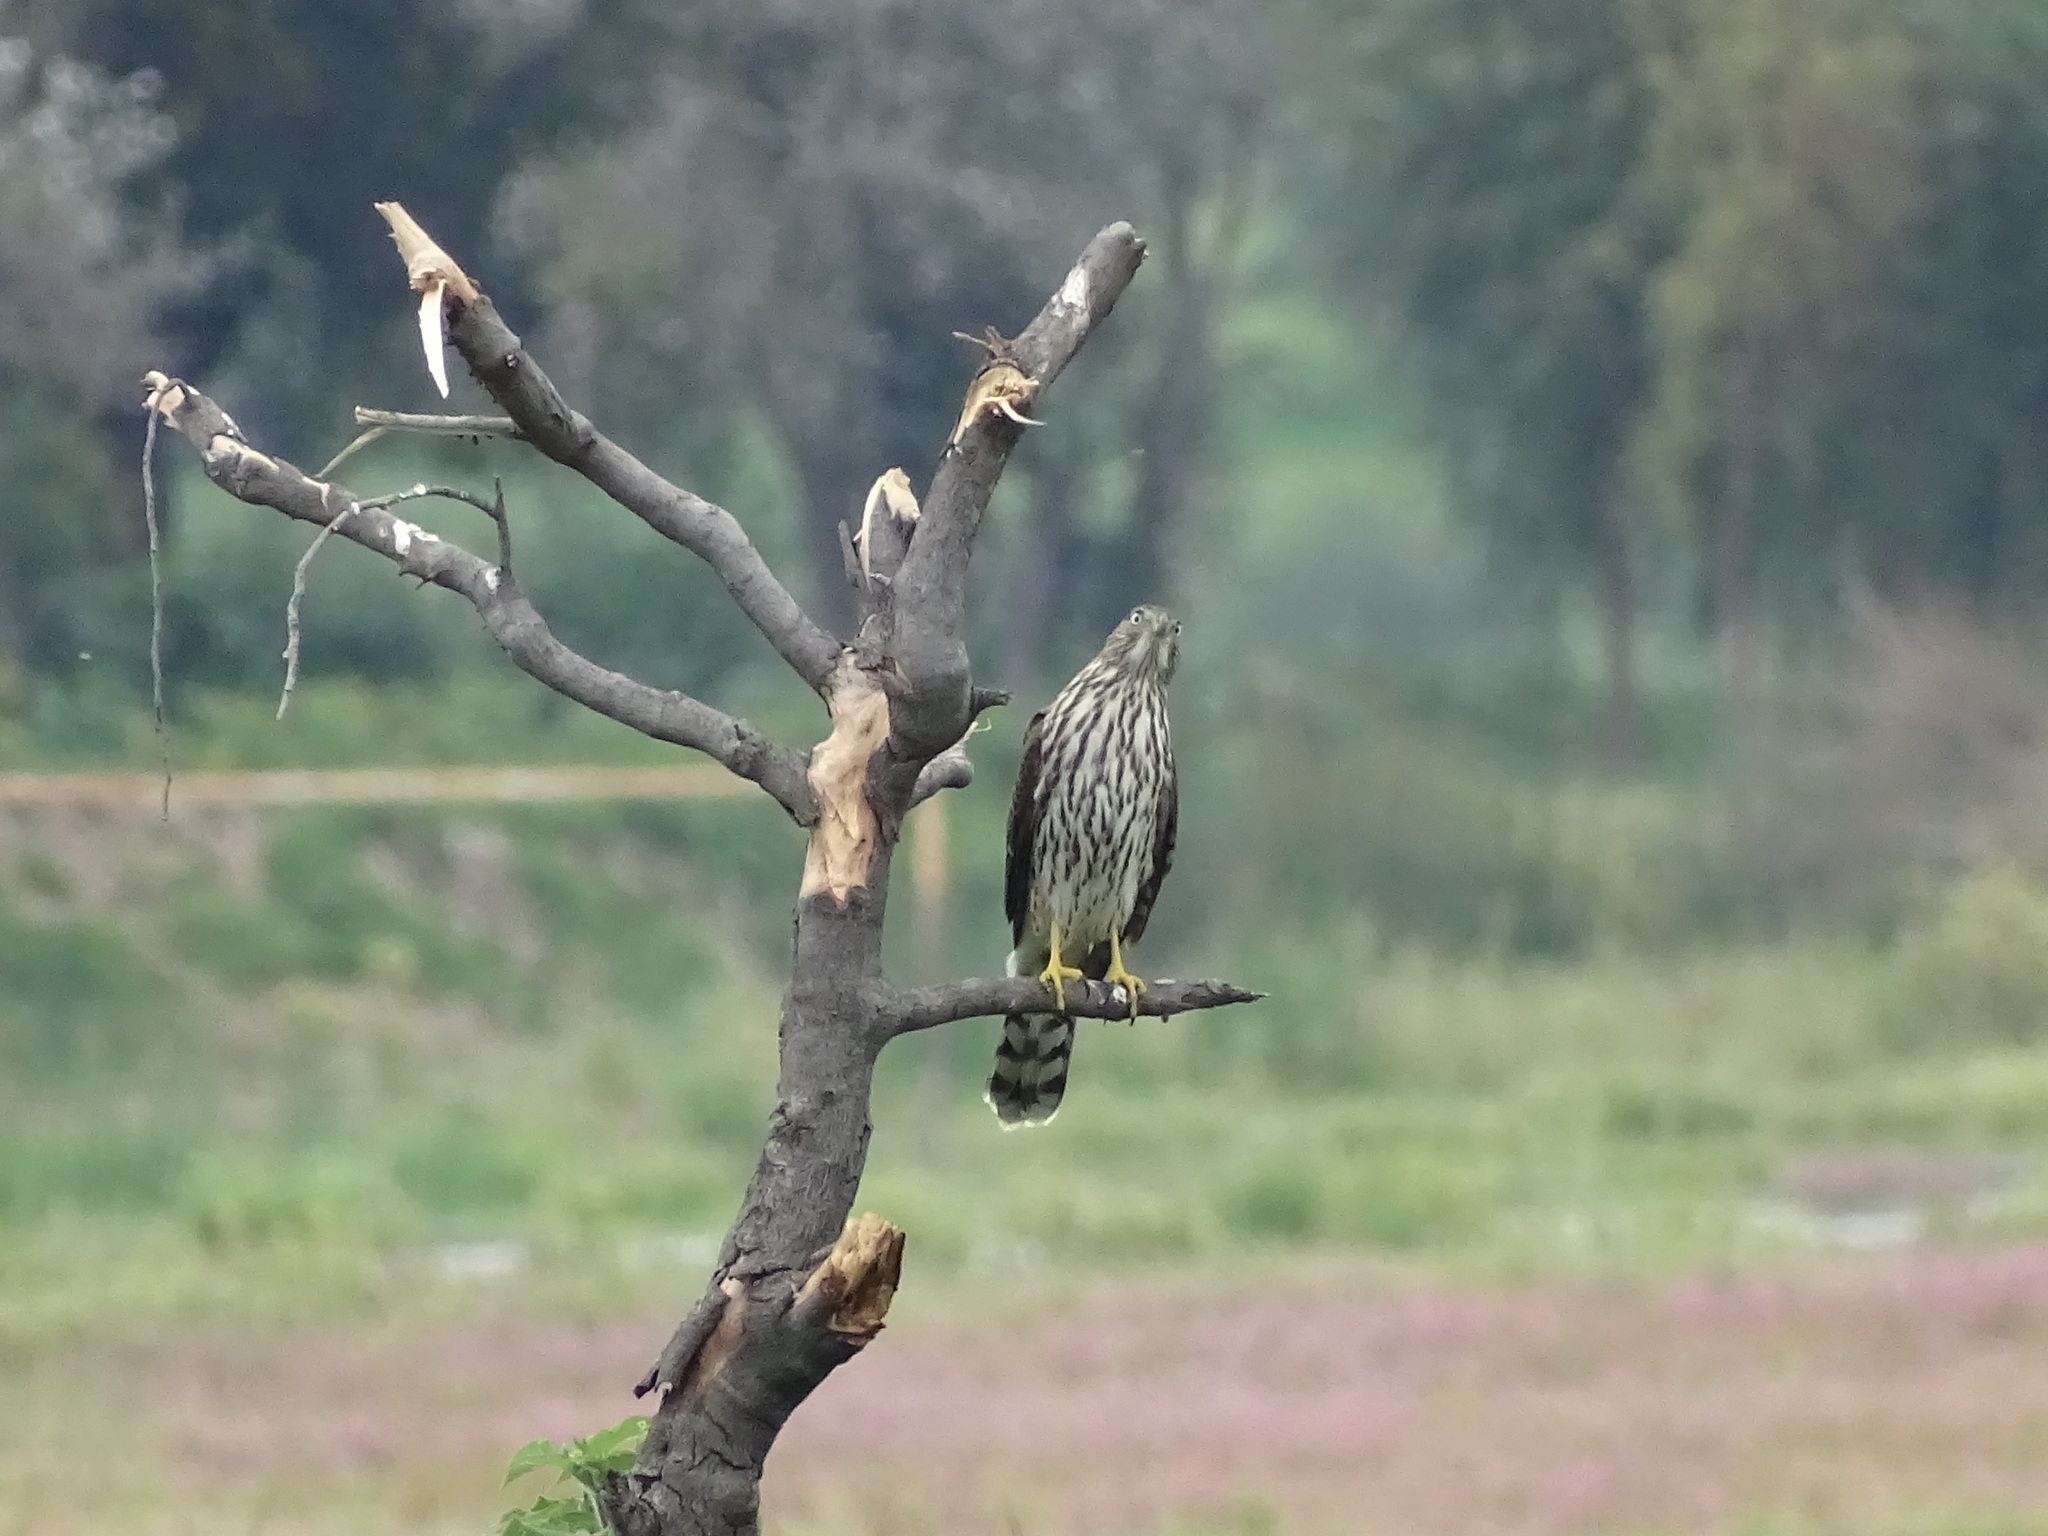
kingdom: Animalia
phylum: Chordata
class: Aves
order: Accipitriformes
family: Accipitridae
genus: Accipiter
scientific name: Accipiter cooperii
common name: Cooper's hawk
